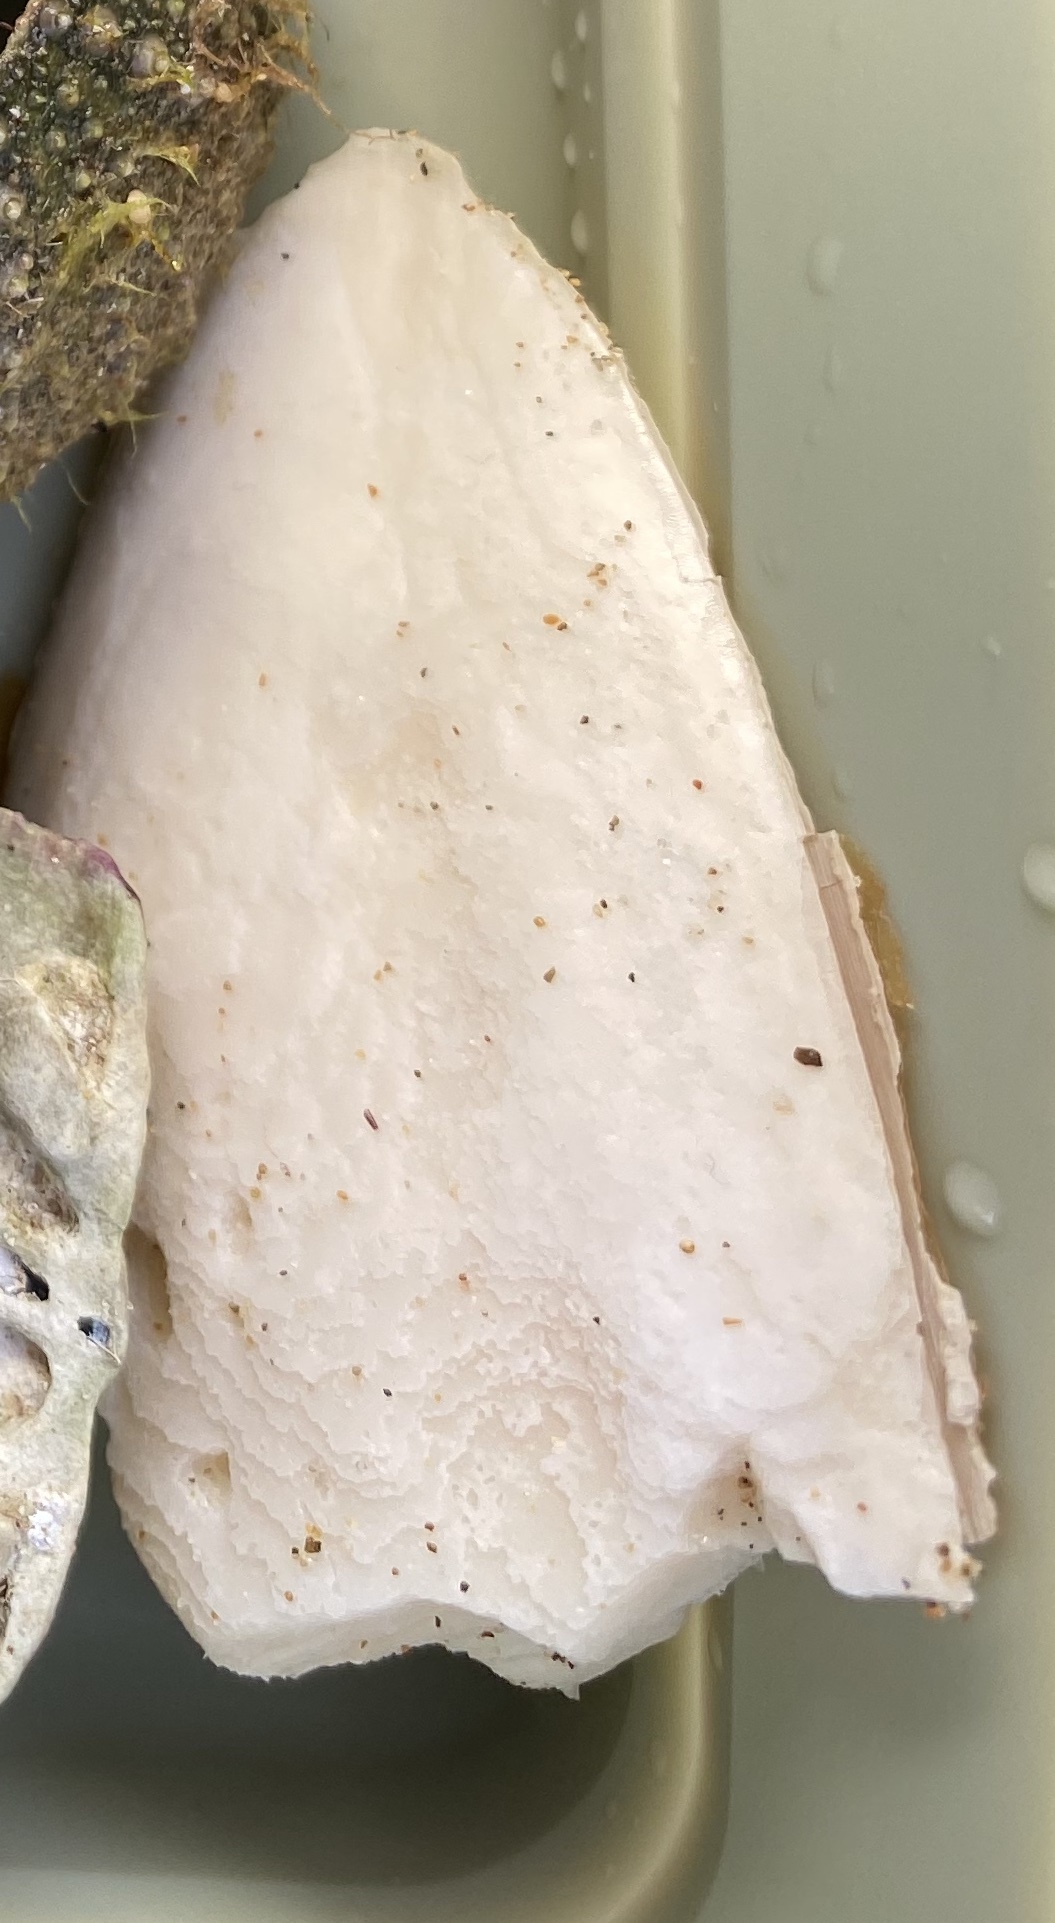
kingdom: Animalia
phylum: Mollusca
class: Cephalopoda
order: Sepiida
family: Sepiidae
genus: Sepia
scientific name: Sepia officinalis
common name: Common cuttlefish
